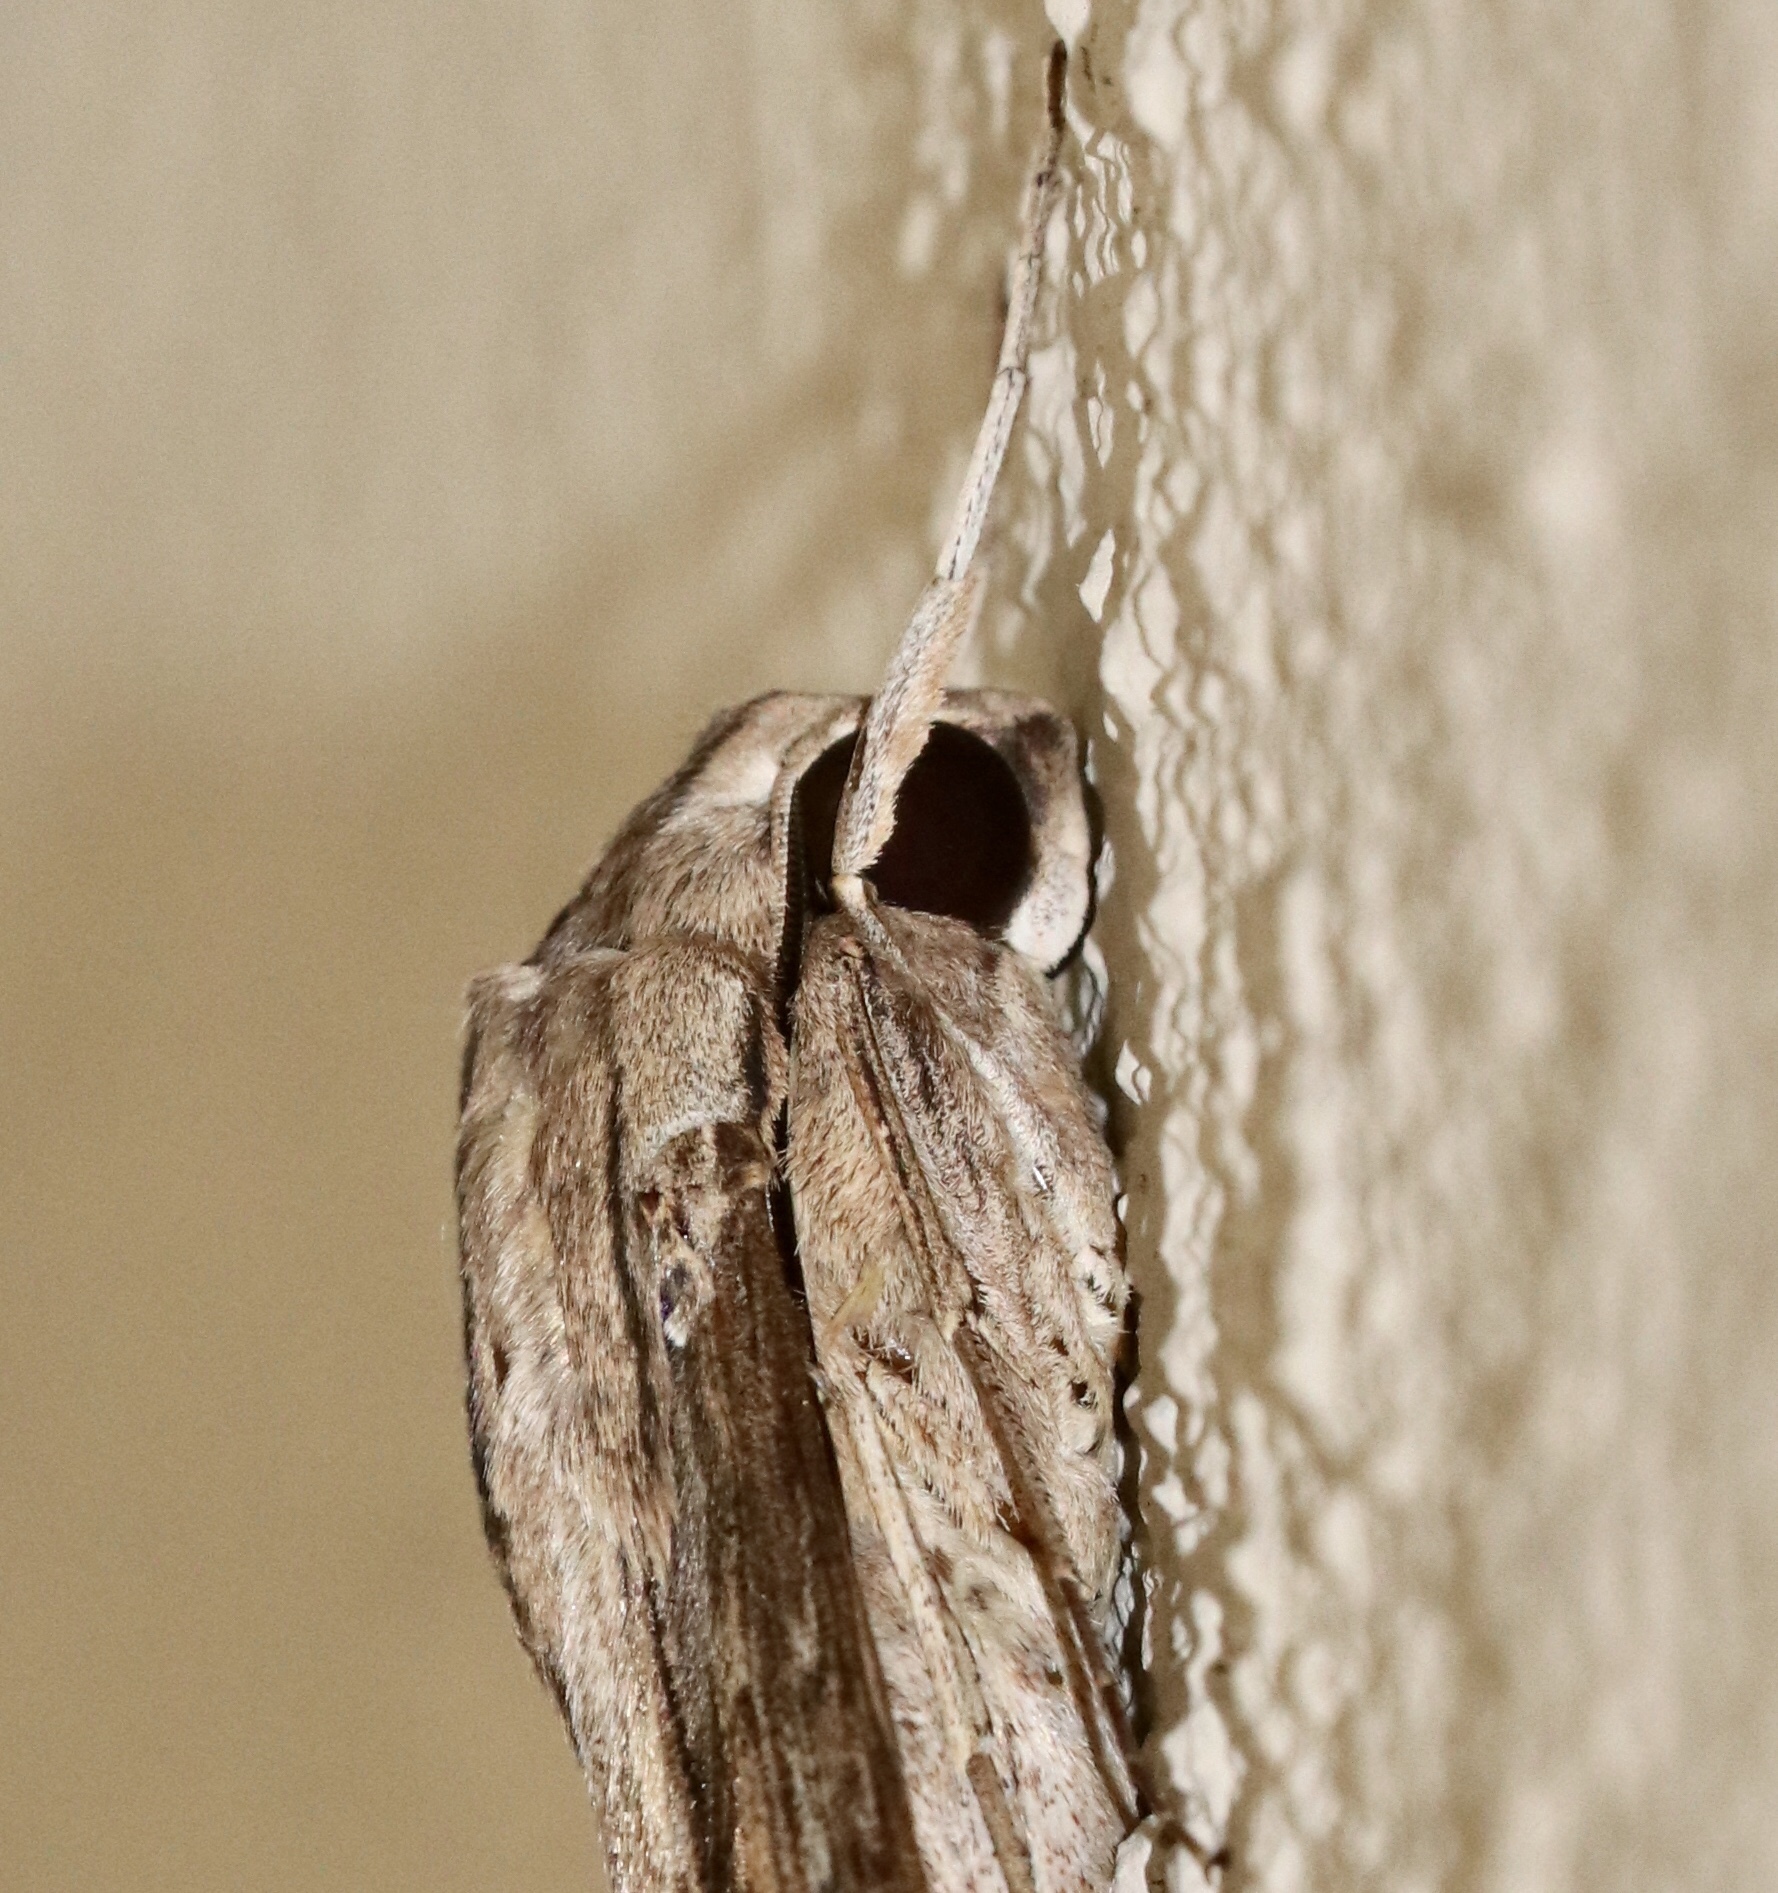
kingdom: Animalia
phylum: Arthropoda
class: Insecta
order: Lepidoptera
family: Sphingidae
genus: Erinnyis
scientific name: Erinnyis ello
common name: Ello sphinx
